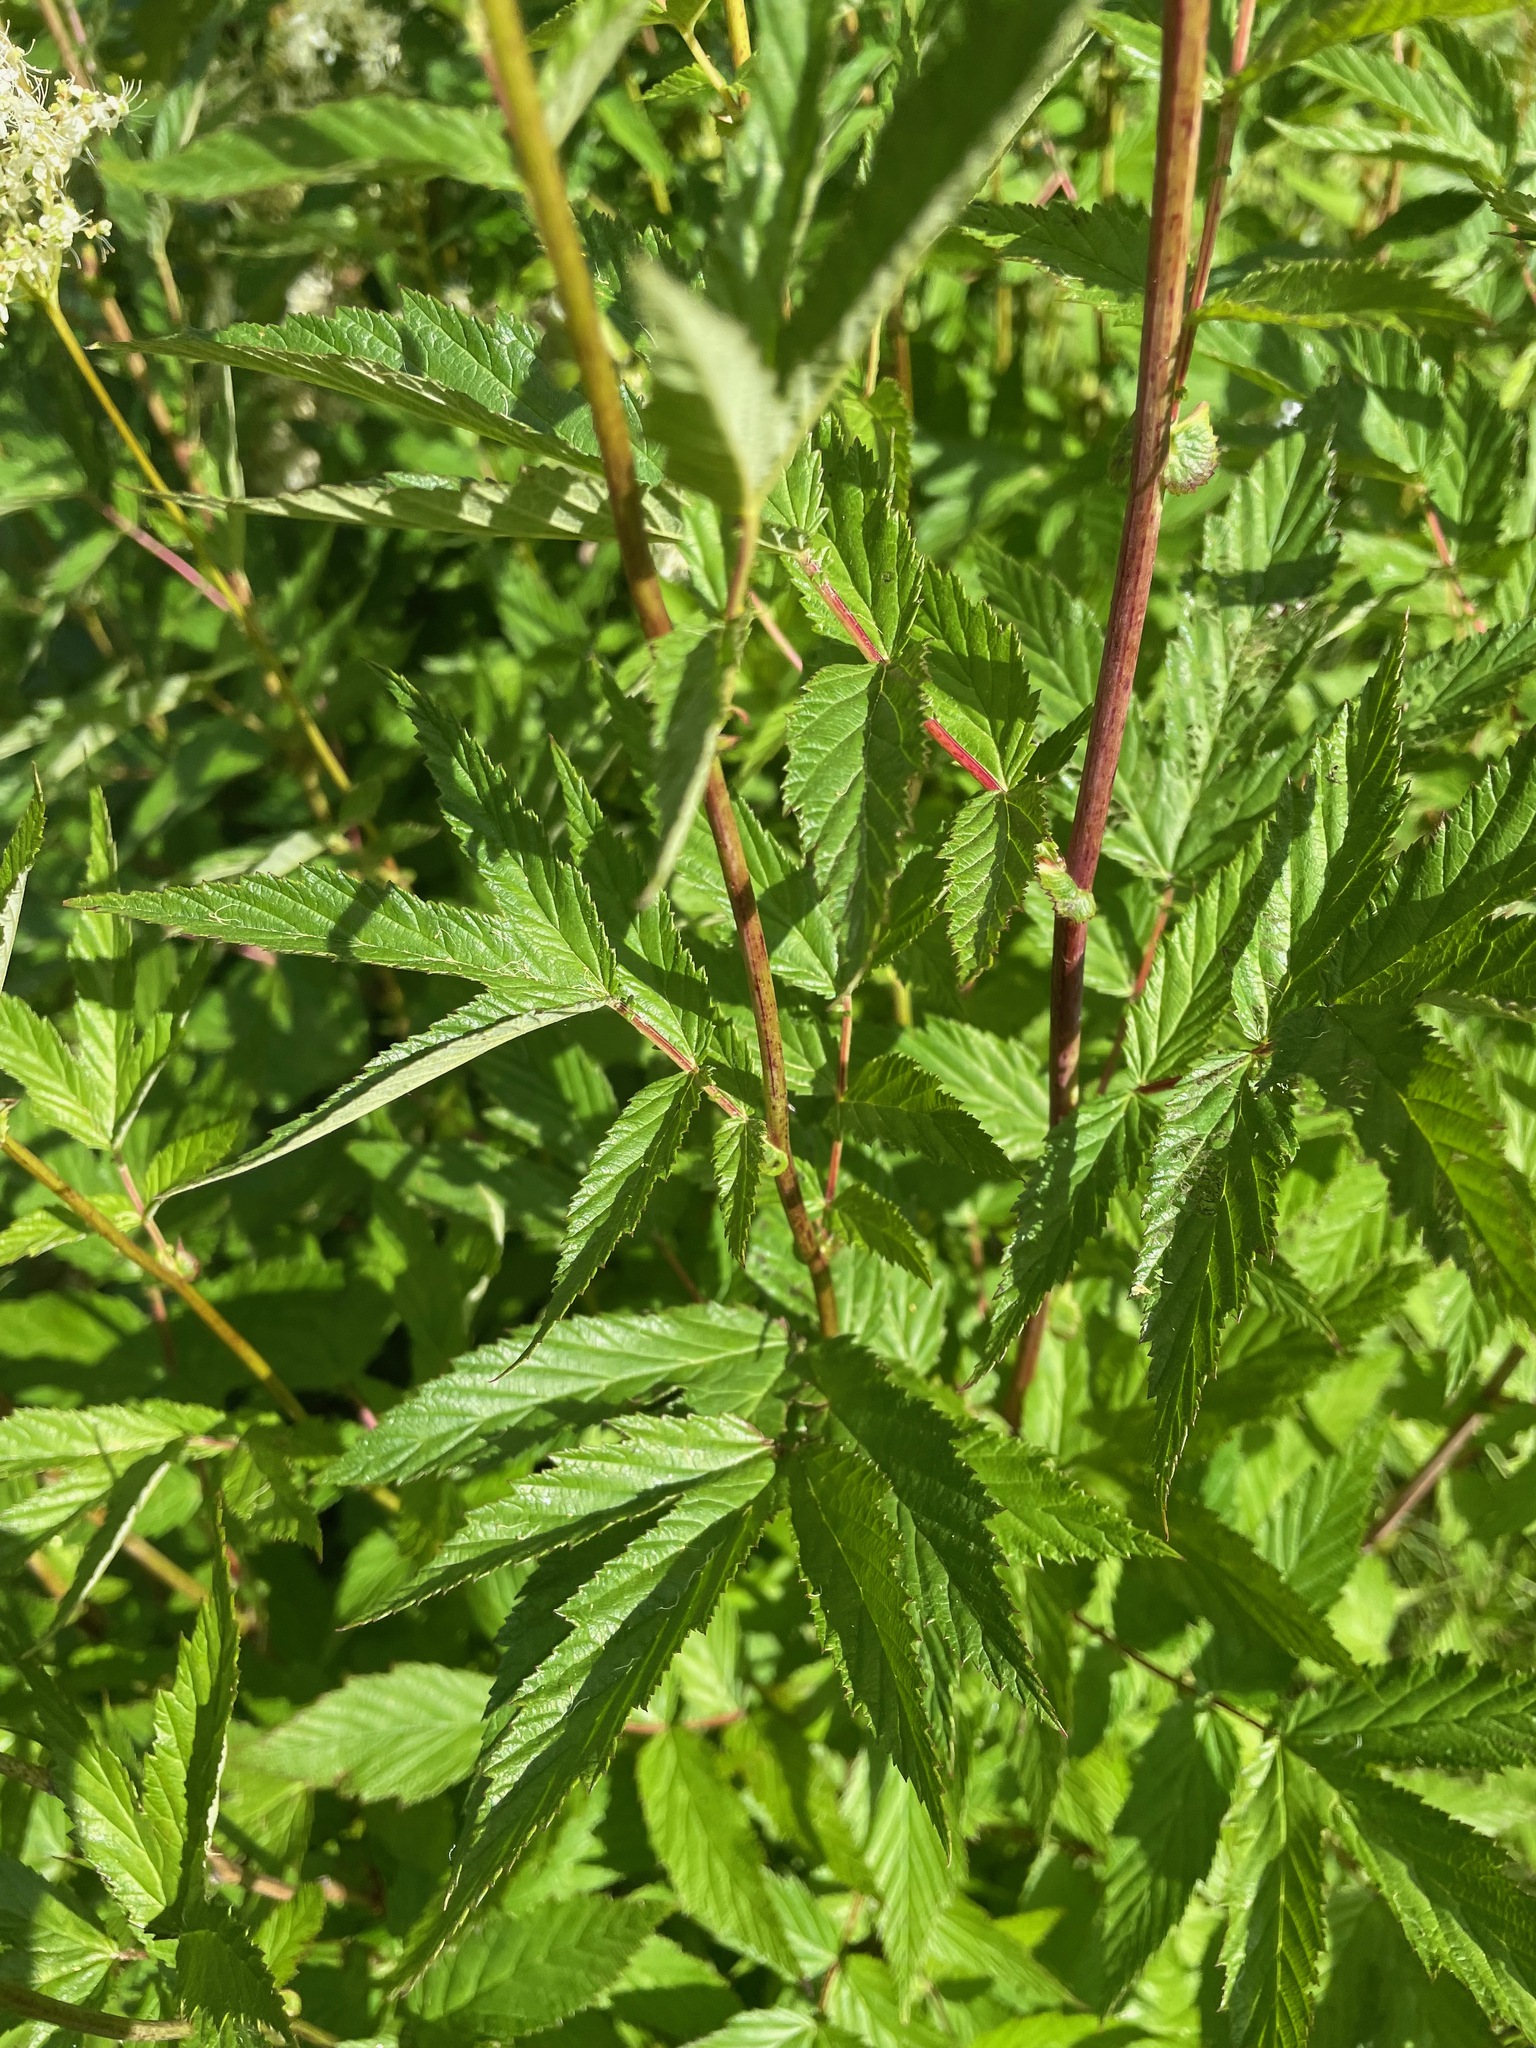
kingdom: Plantae
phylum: Tracheophyta
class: Magnoliopsida
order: Rosales
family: Rosaceae
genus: Filipendula
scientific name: Filipendula ulmaria
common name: Meadowsweet
